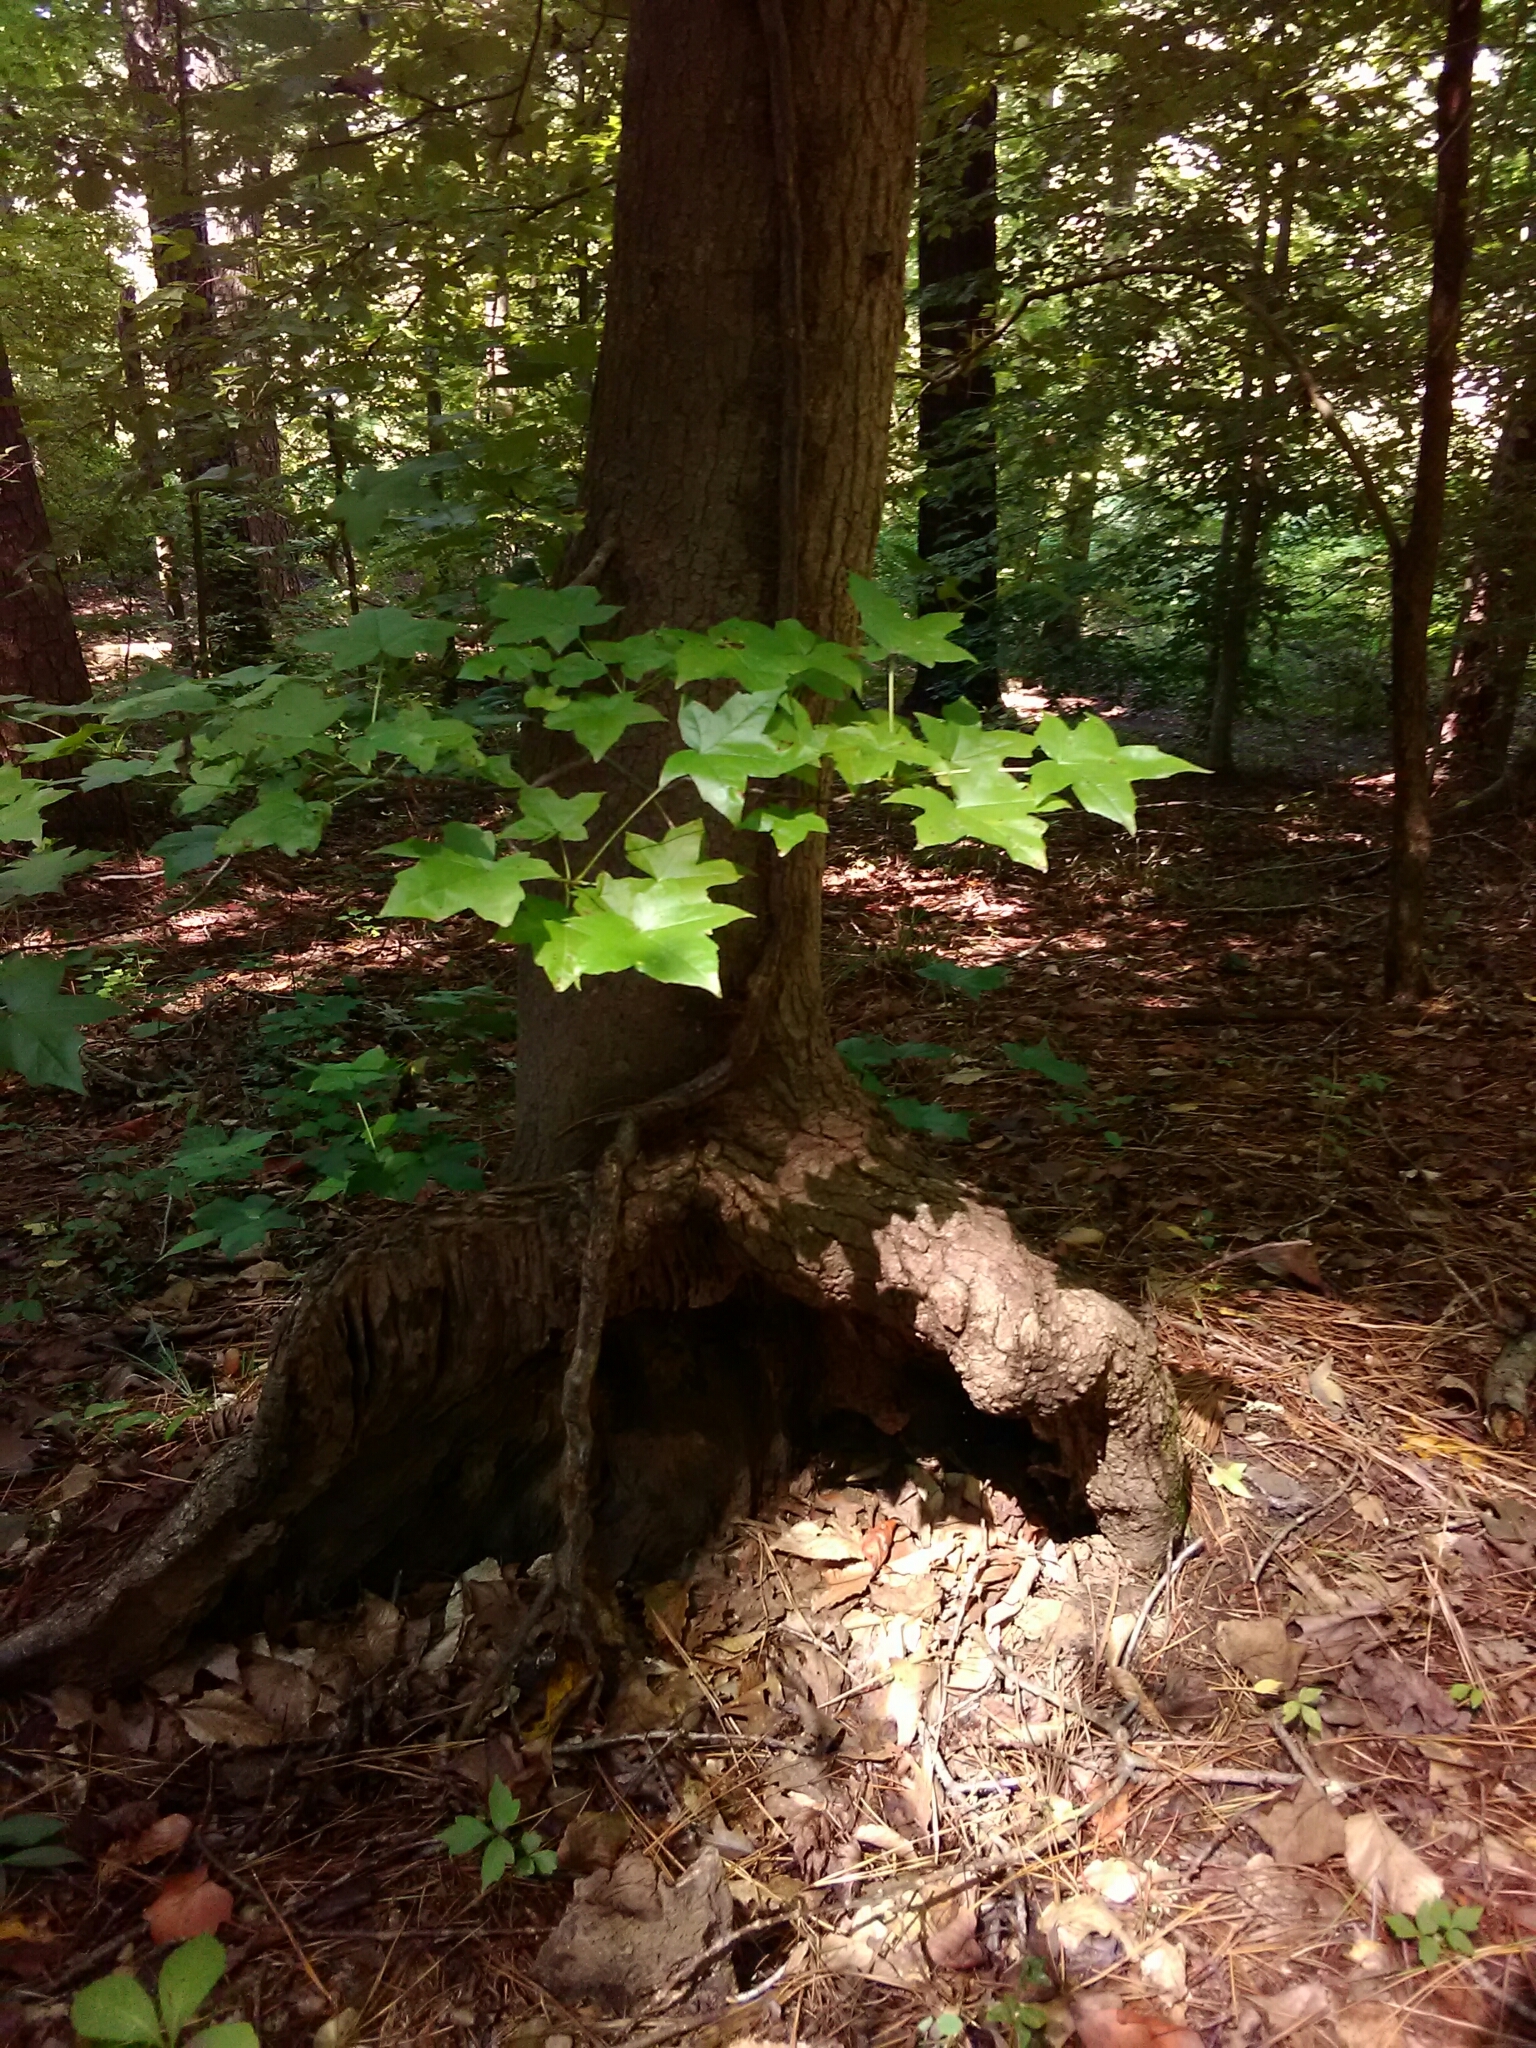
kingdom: Plantae
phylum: Tracheophyta
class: Magnoliopsida
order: Saxifragales
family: Altingiaceae
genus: Liquidambar
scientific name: Liquidambar styraciflua
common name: Sweet gum
